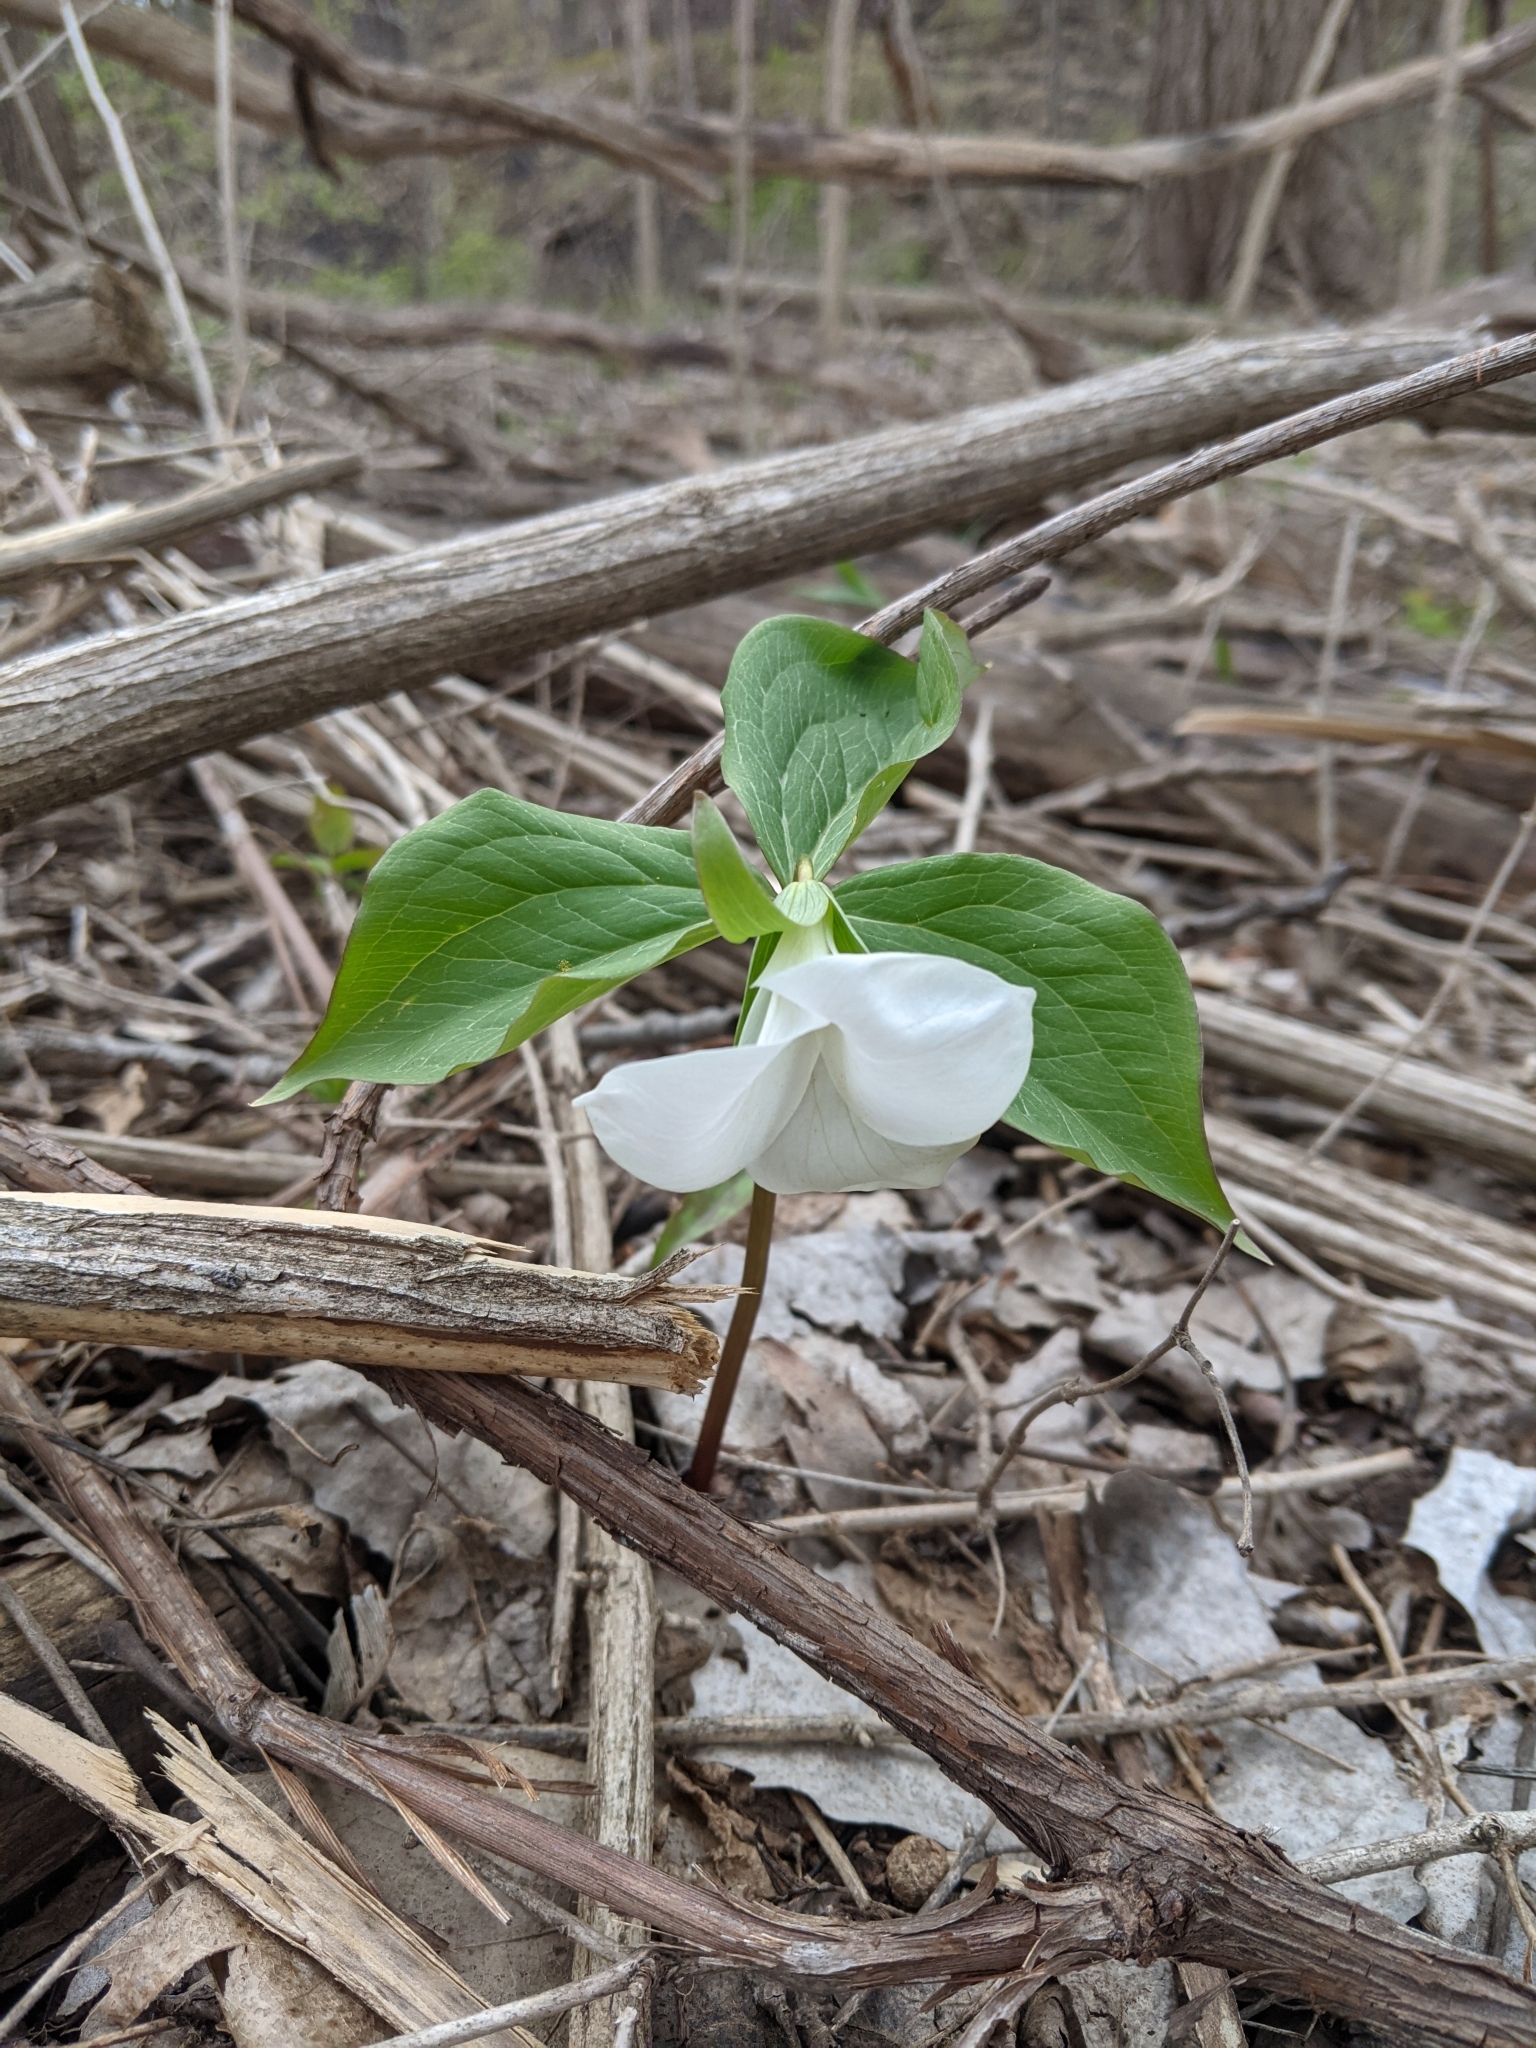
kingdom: Plantae
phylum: Tracheophyta
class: Liliopsida
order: Liliales
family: Melanthiaceae
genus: Trillium
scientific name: Trillium grandiflorum
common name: Great white trillium
